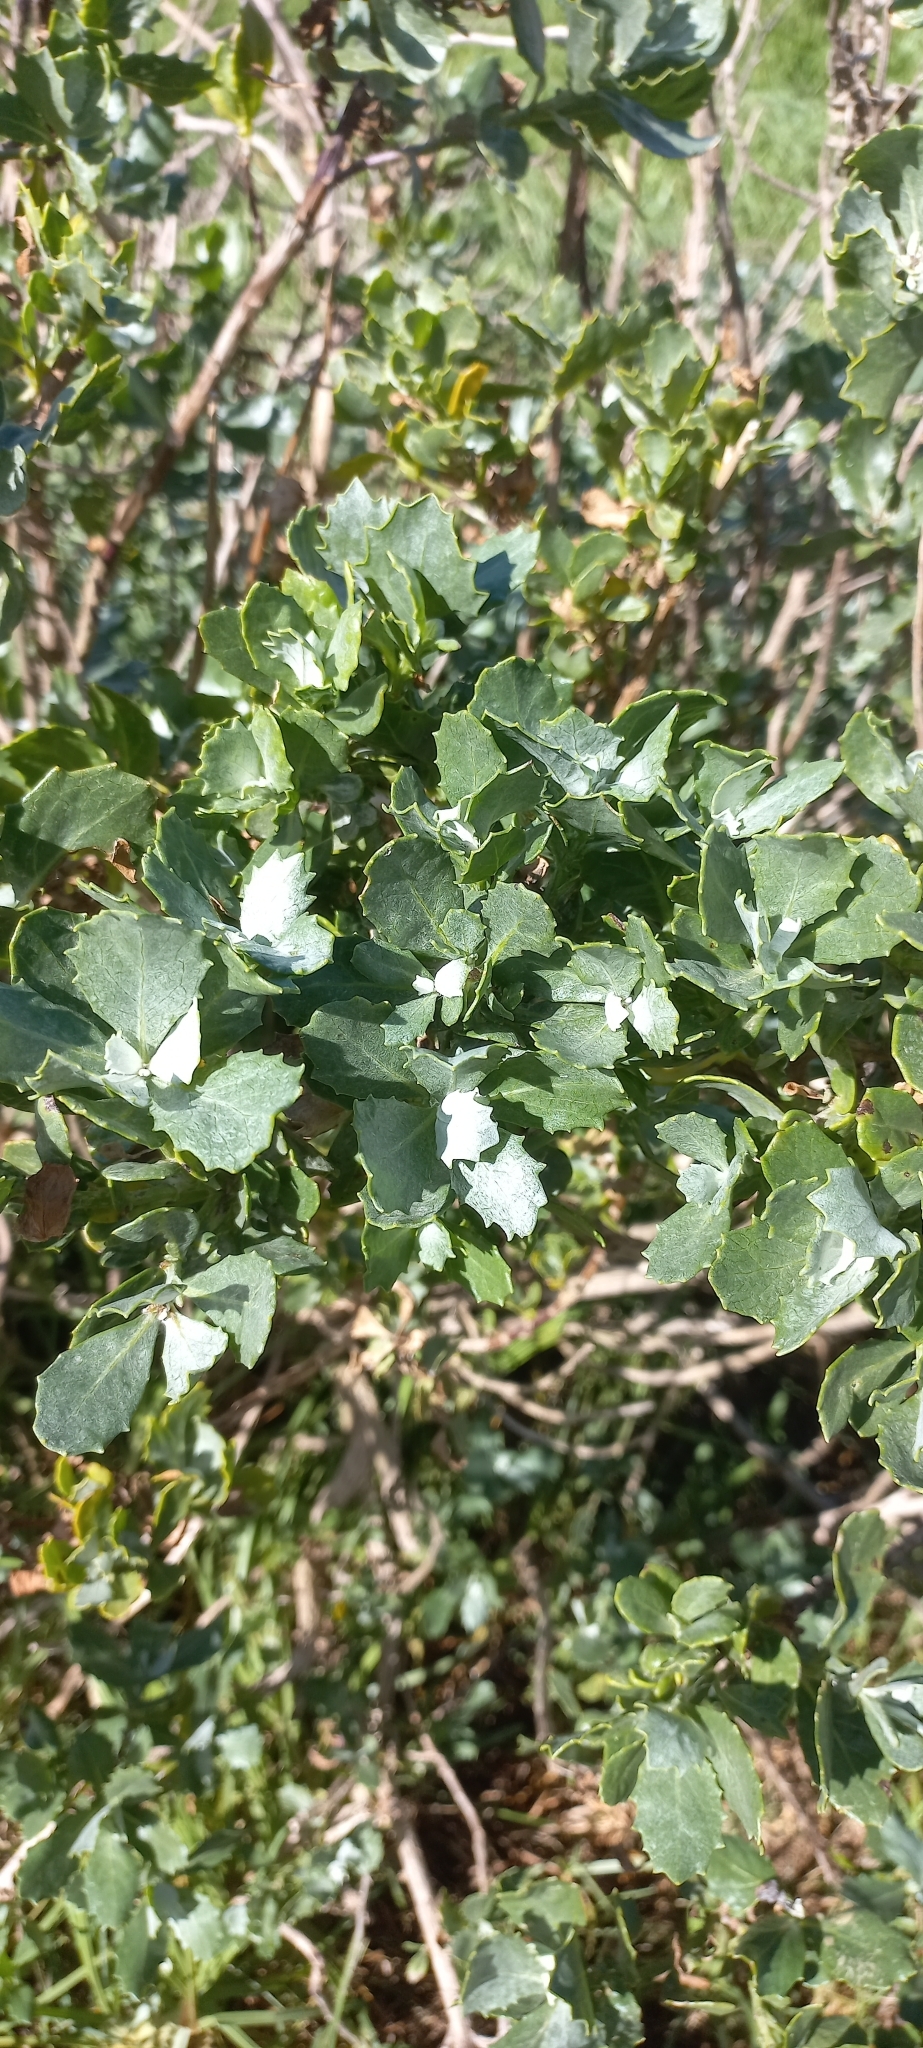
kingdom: Plantae
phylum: Tracheophyta
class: Magnoliopsida
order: Asterales
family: Asteraceae
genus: Senecio
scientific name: Senecio halimifolius
